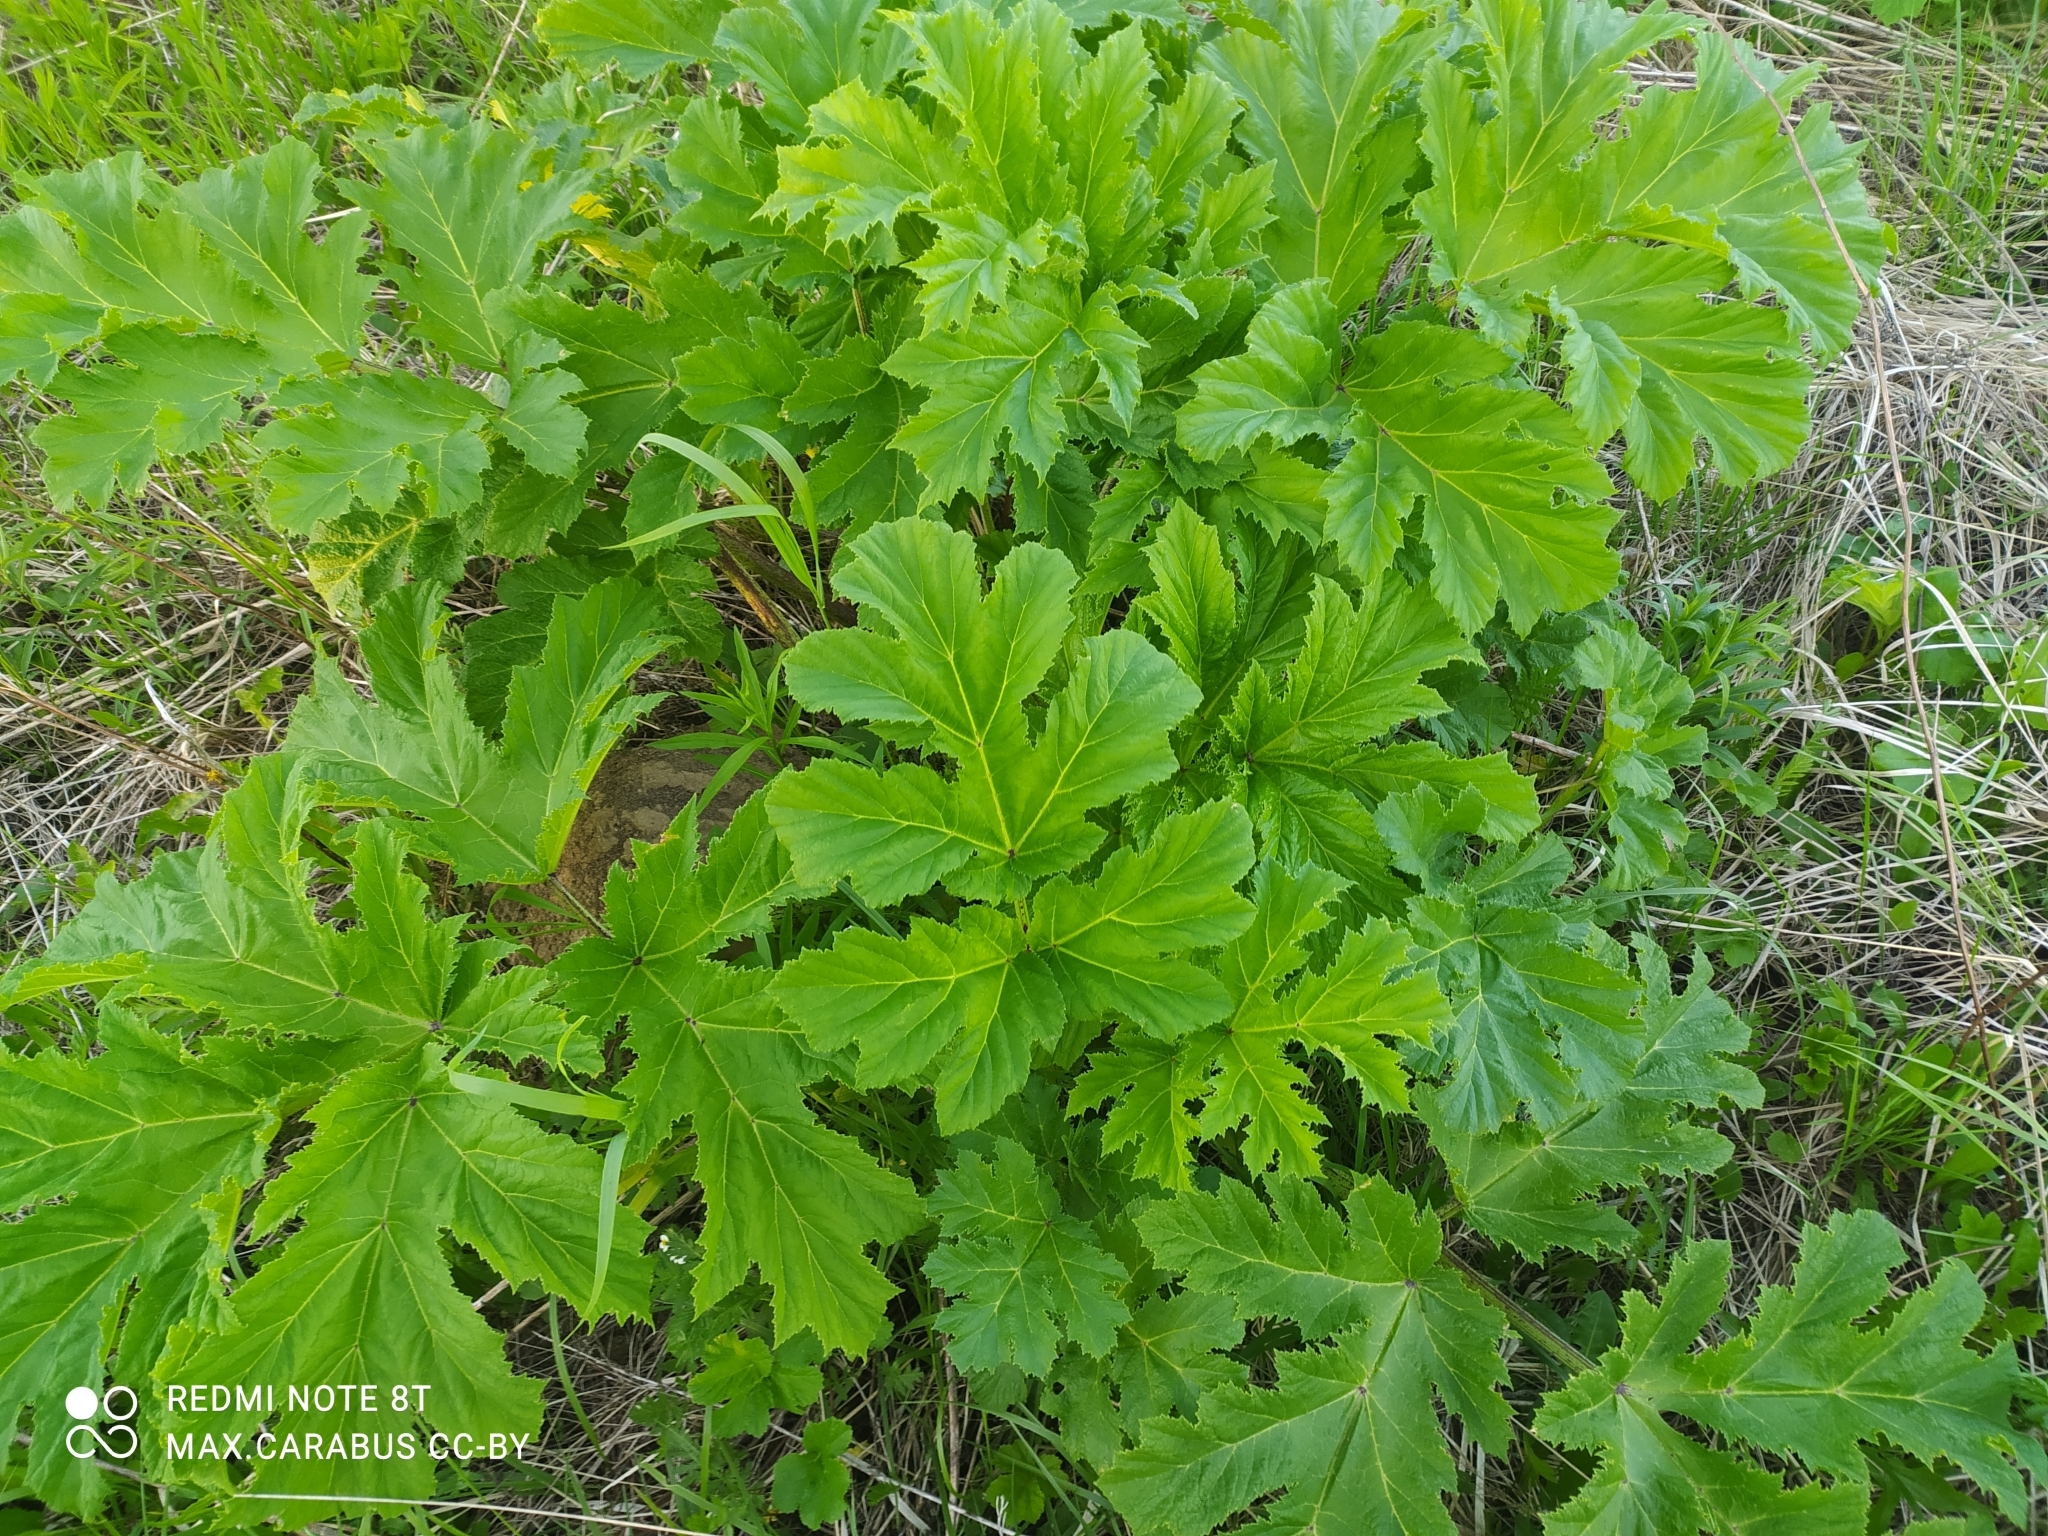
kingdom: Plantae
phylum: Tracheophyta
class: Magnoliopsida
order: Apiales
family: Apiaceae
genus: Heracleum
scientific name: Heracleum sosnowskyi
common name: Sosnowsky's hogweed
